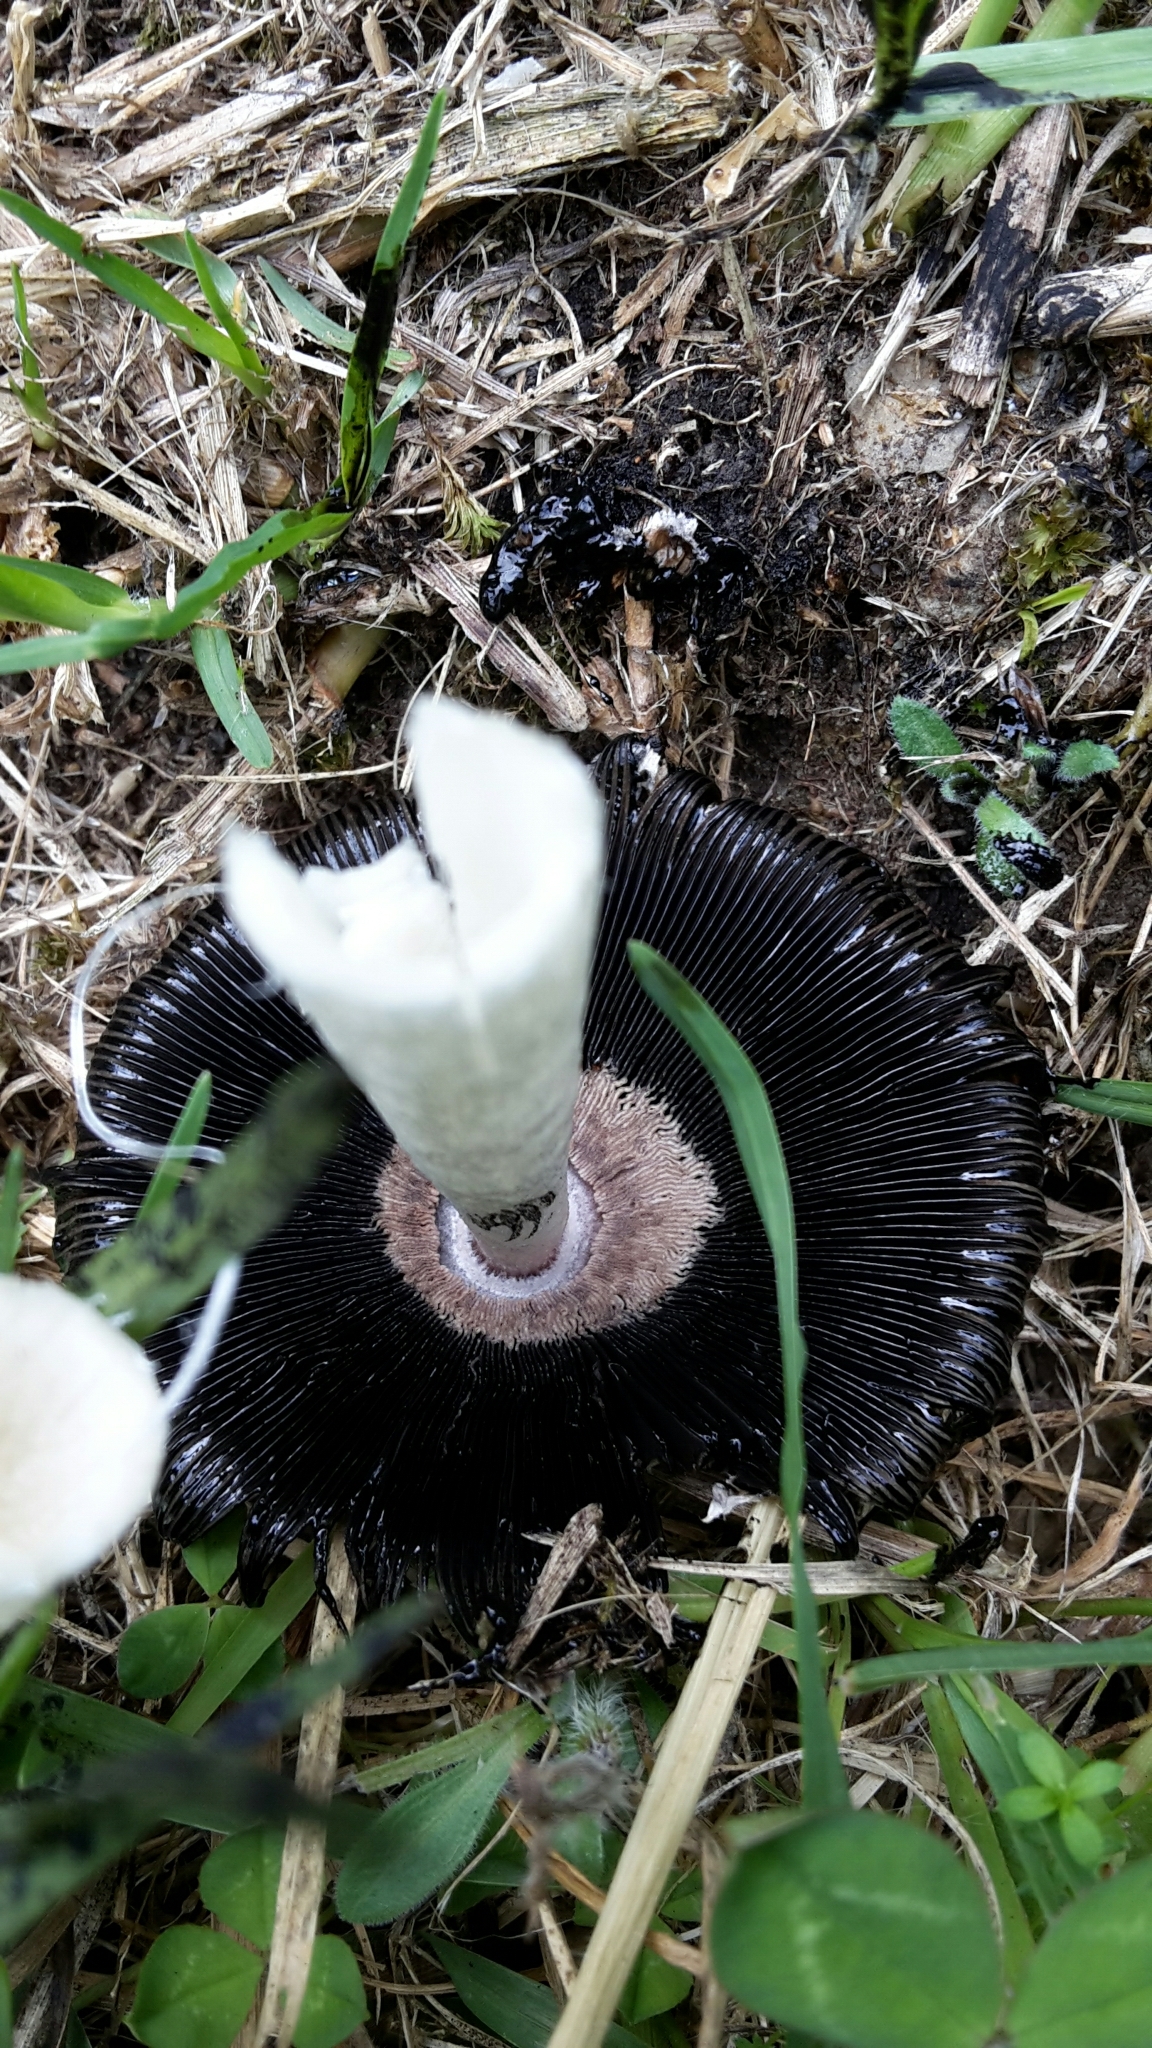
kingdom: Fungi
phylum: Basidiomycota
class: Agaricomycetes
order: Agaricales
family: Agaricaceae
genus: Coprinus
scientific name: Coprinus comatus
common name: Lawyer's wig
